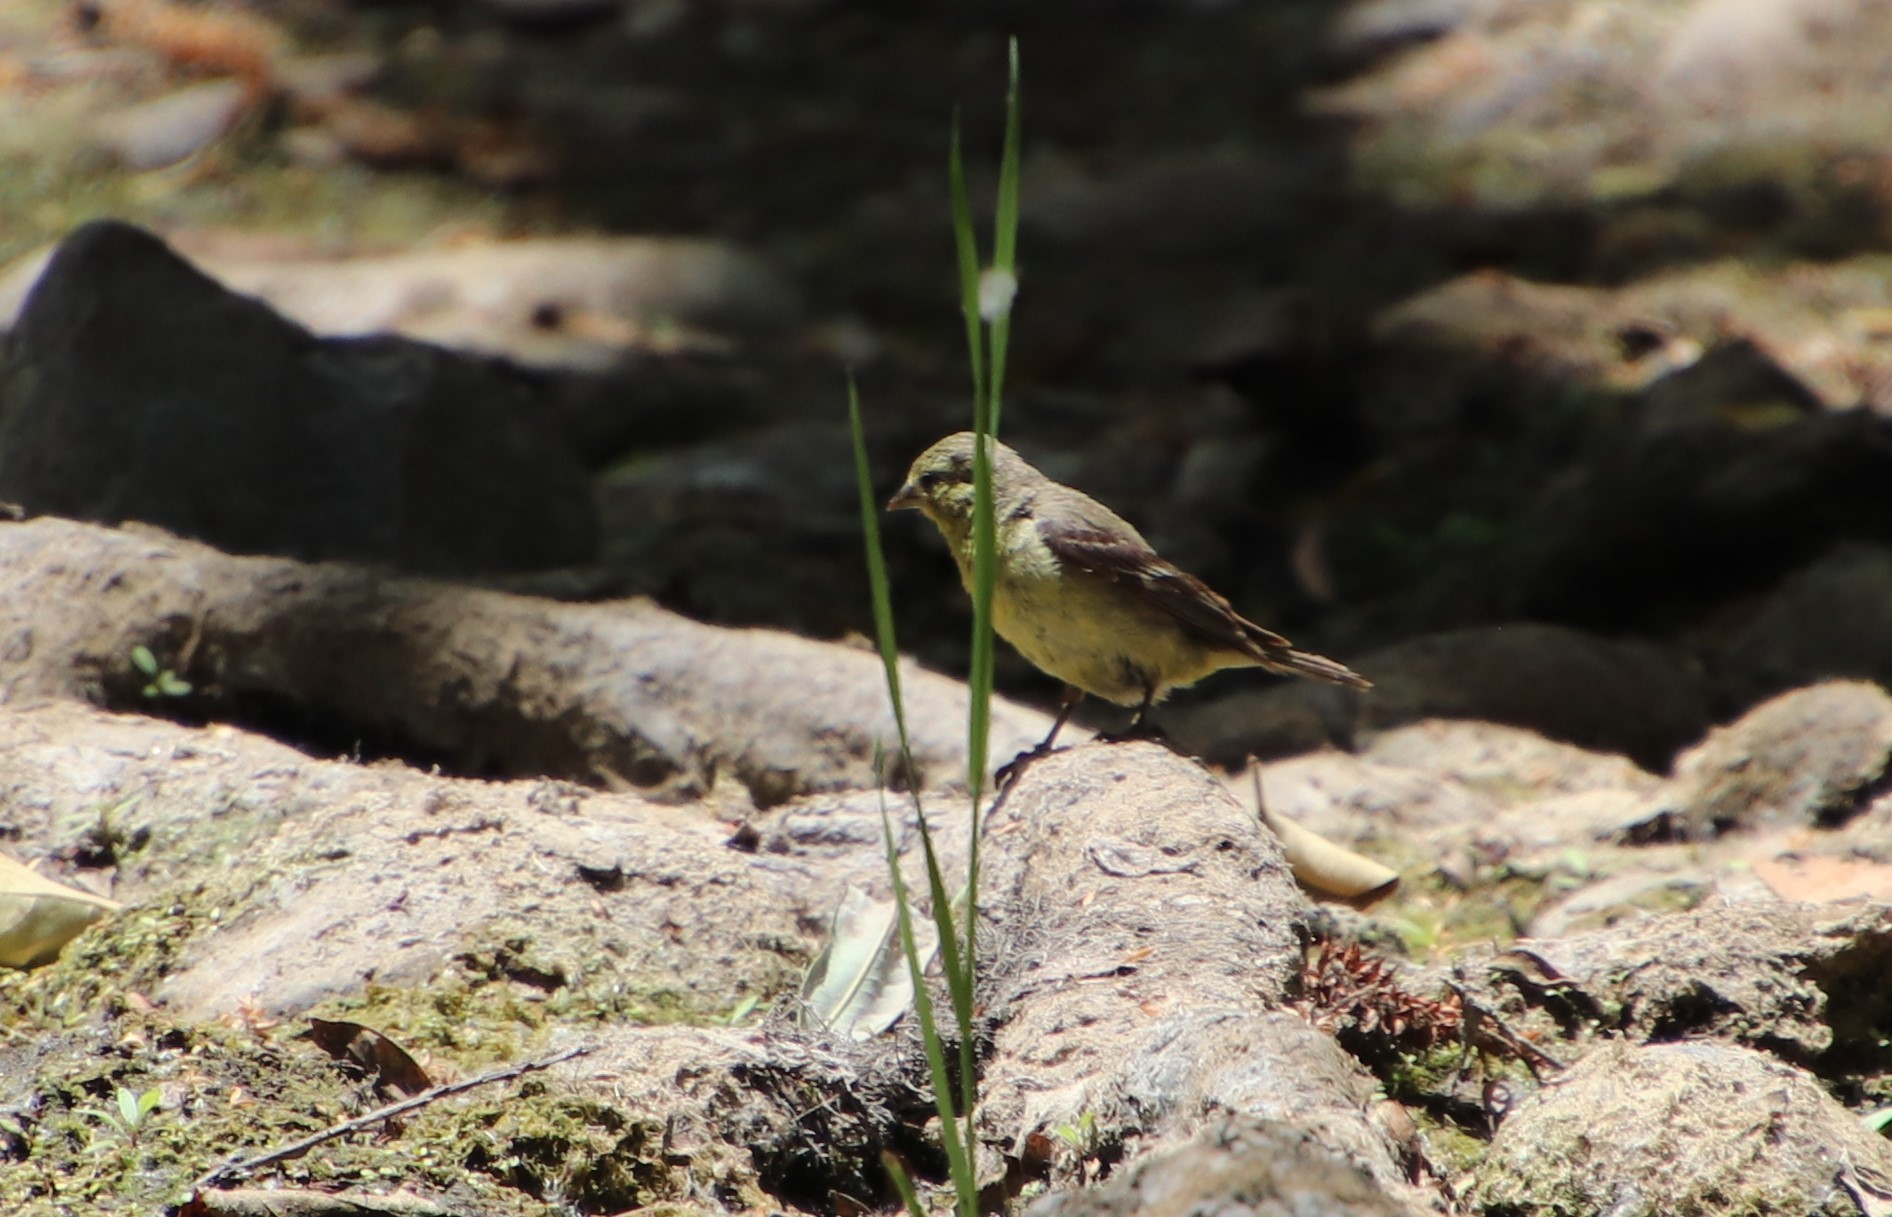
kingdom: Animalia
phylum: Chordata
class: Aves
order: Passeriformes
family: Fringillidae
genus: Spinus
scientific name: Spinus psaltria
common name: Lesser goldfinch
